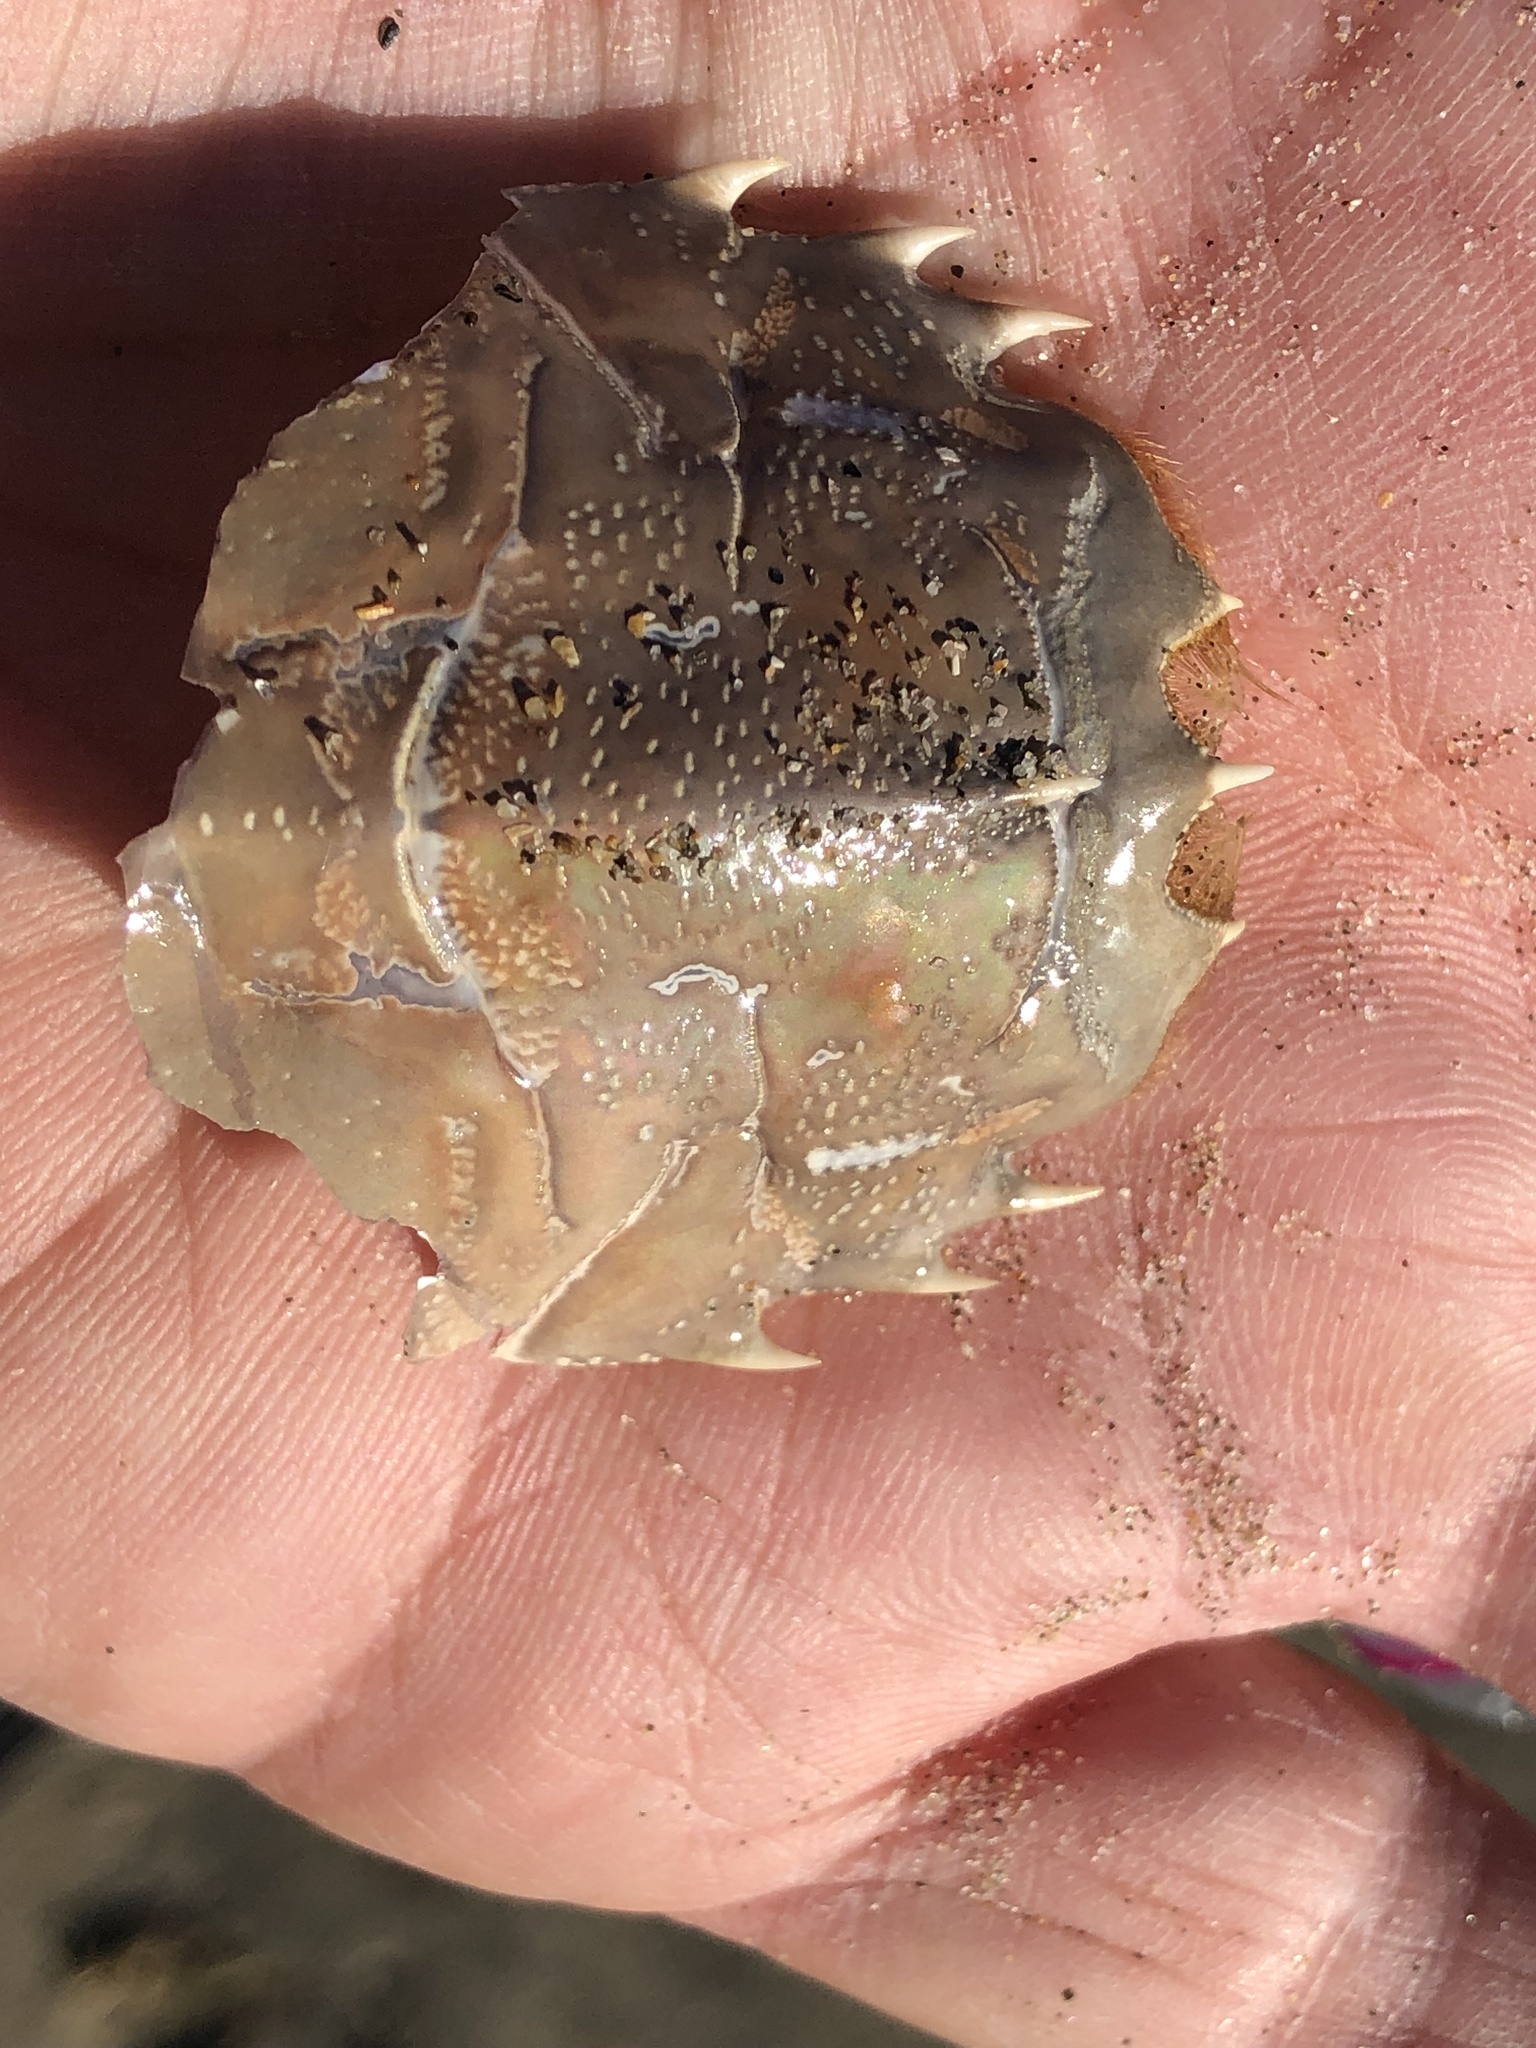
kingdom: Animalia
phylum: Arthropoda
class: Malacostraca
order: Decapoda
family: Blepharipodidae
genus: Blepharipoda
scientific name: Blepharipoda occidentalis
